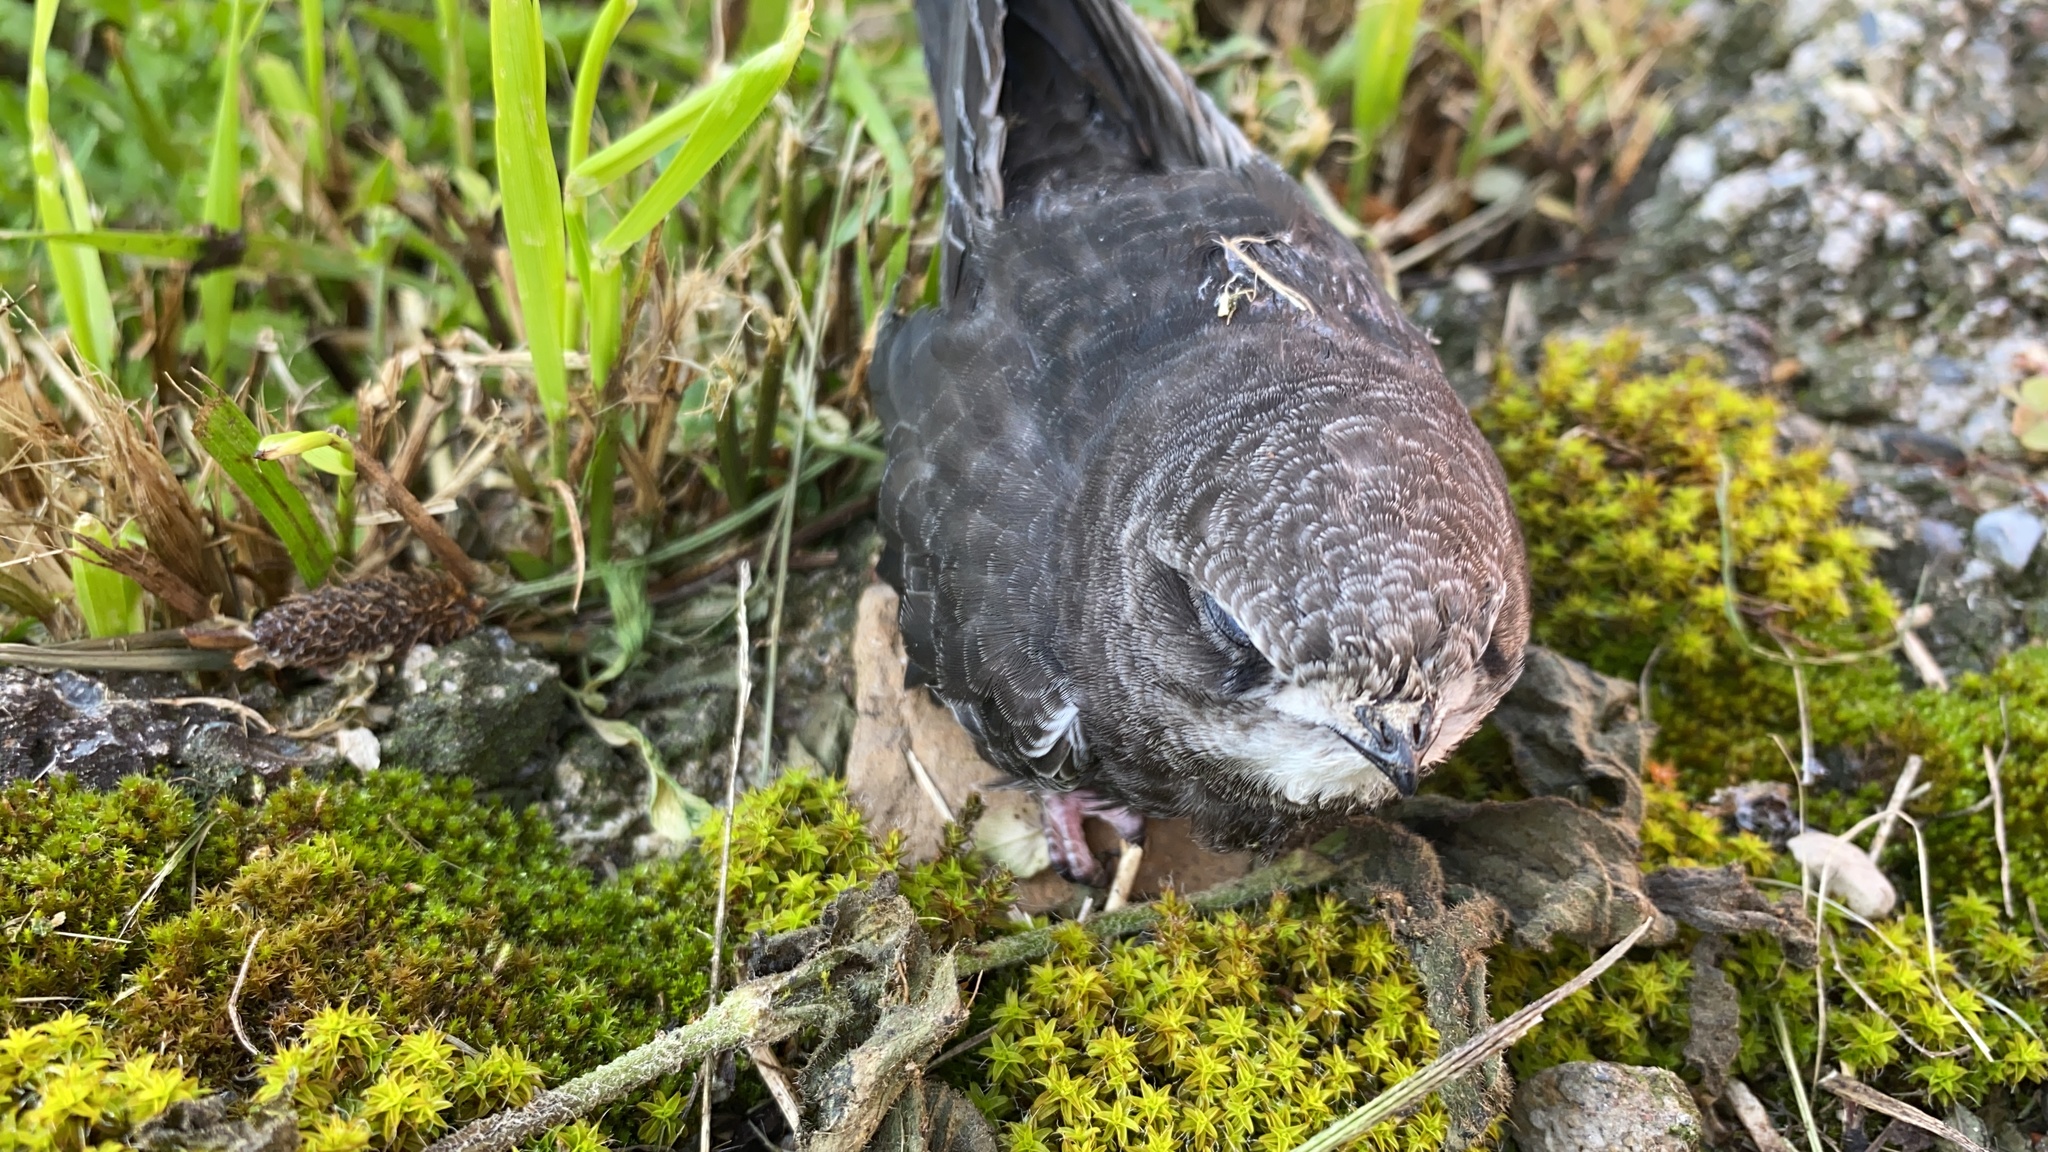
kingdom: Animalia
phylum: Chordata
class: Aves
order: Apodiformes
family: Apodidae
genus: Apus
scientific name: Apus apus
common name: Common swift
